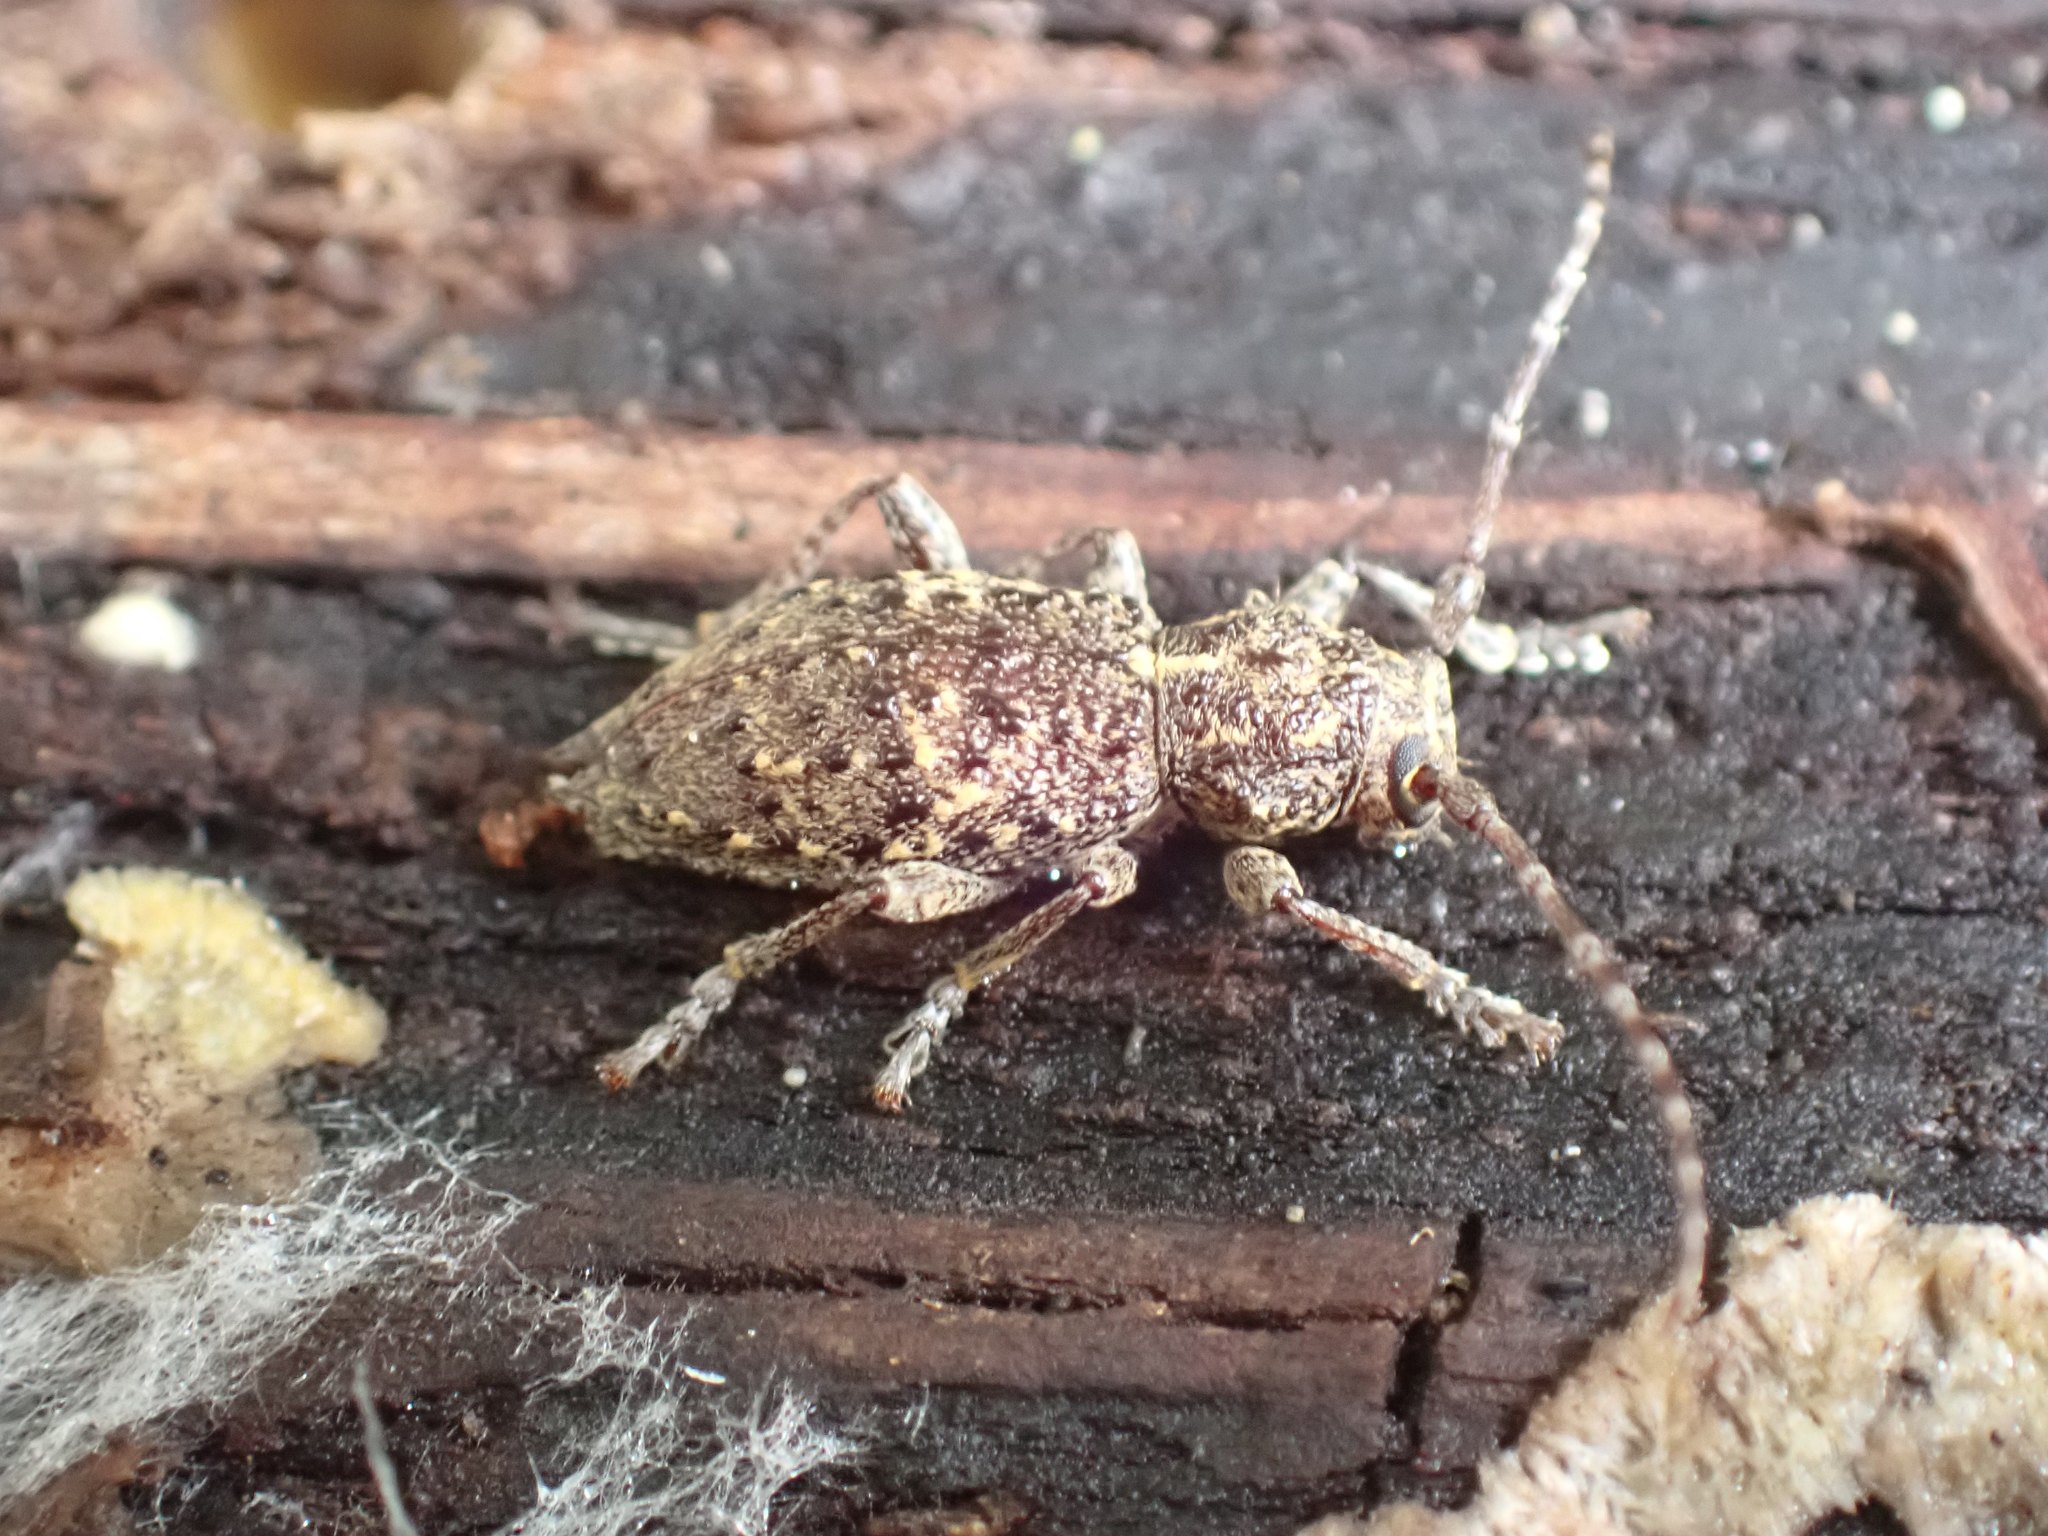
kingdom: Animalia
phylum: Arthropoda
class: Insecta
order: Coleoptera
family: Cerambycidae
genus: Plectrura
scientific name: Plectrura spinicauda
